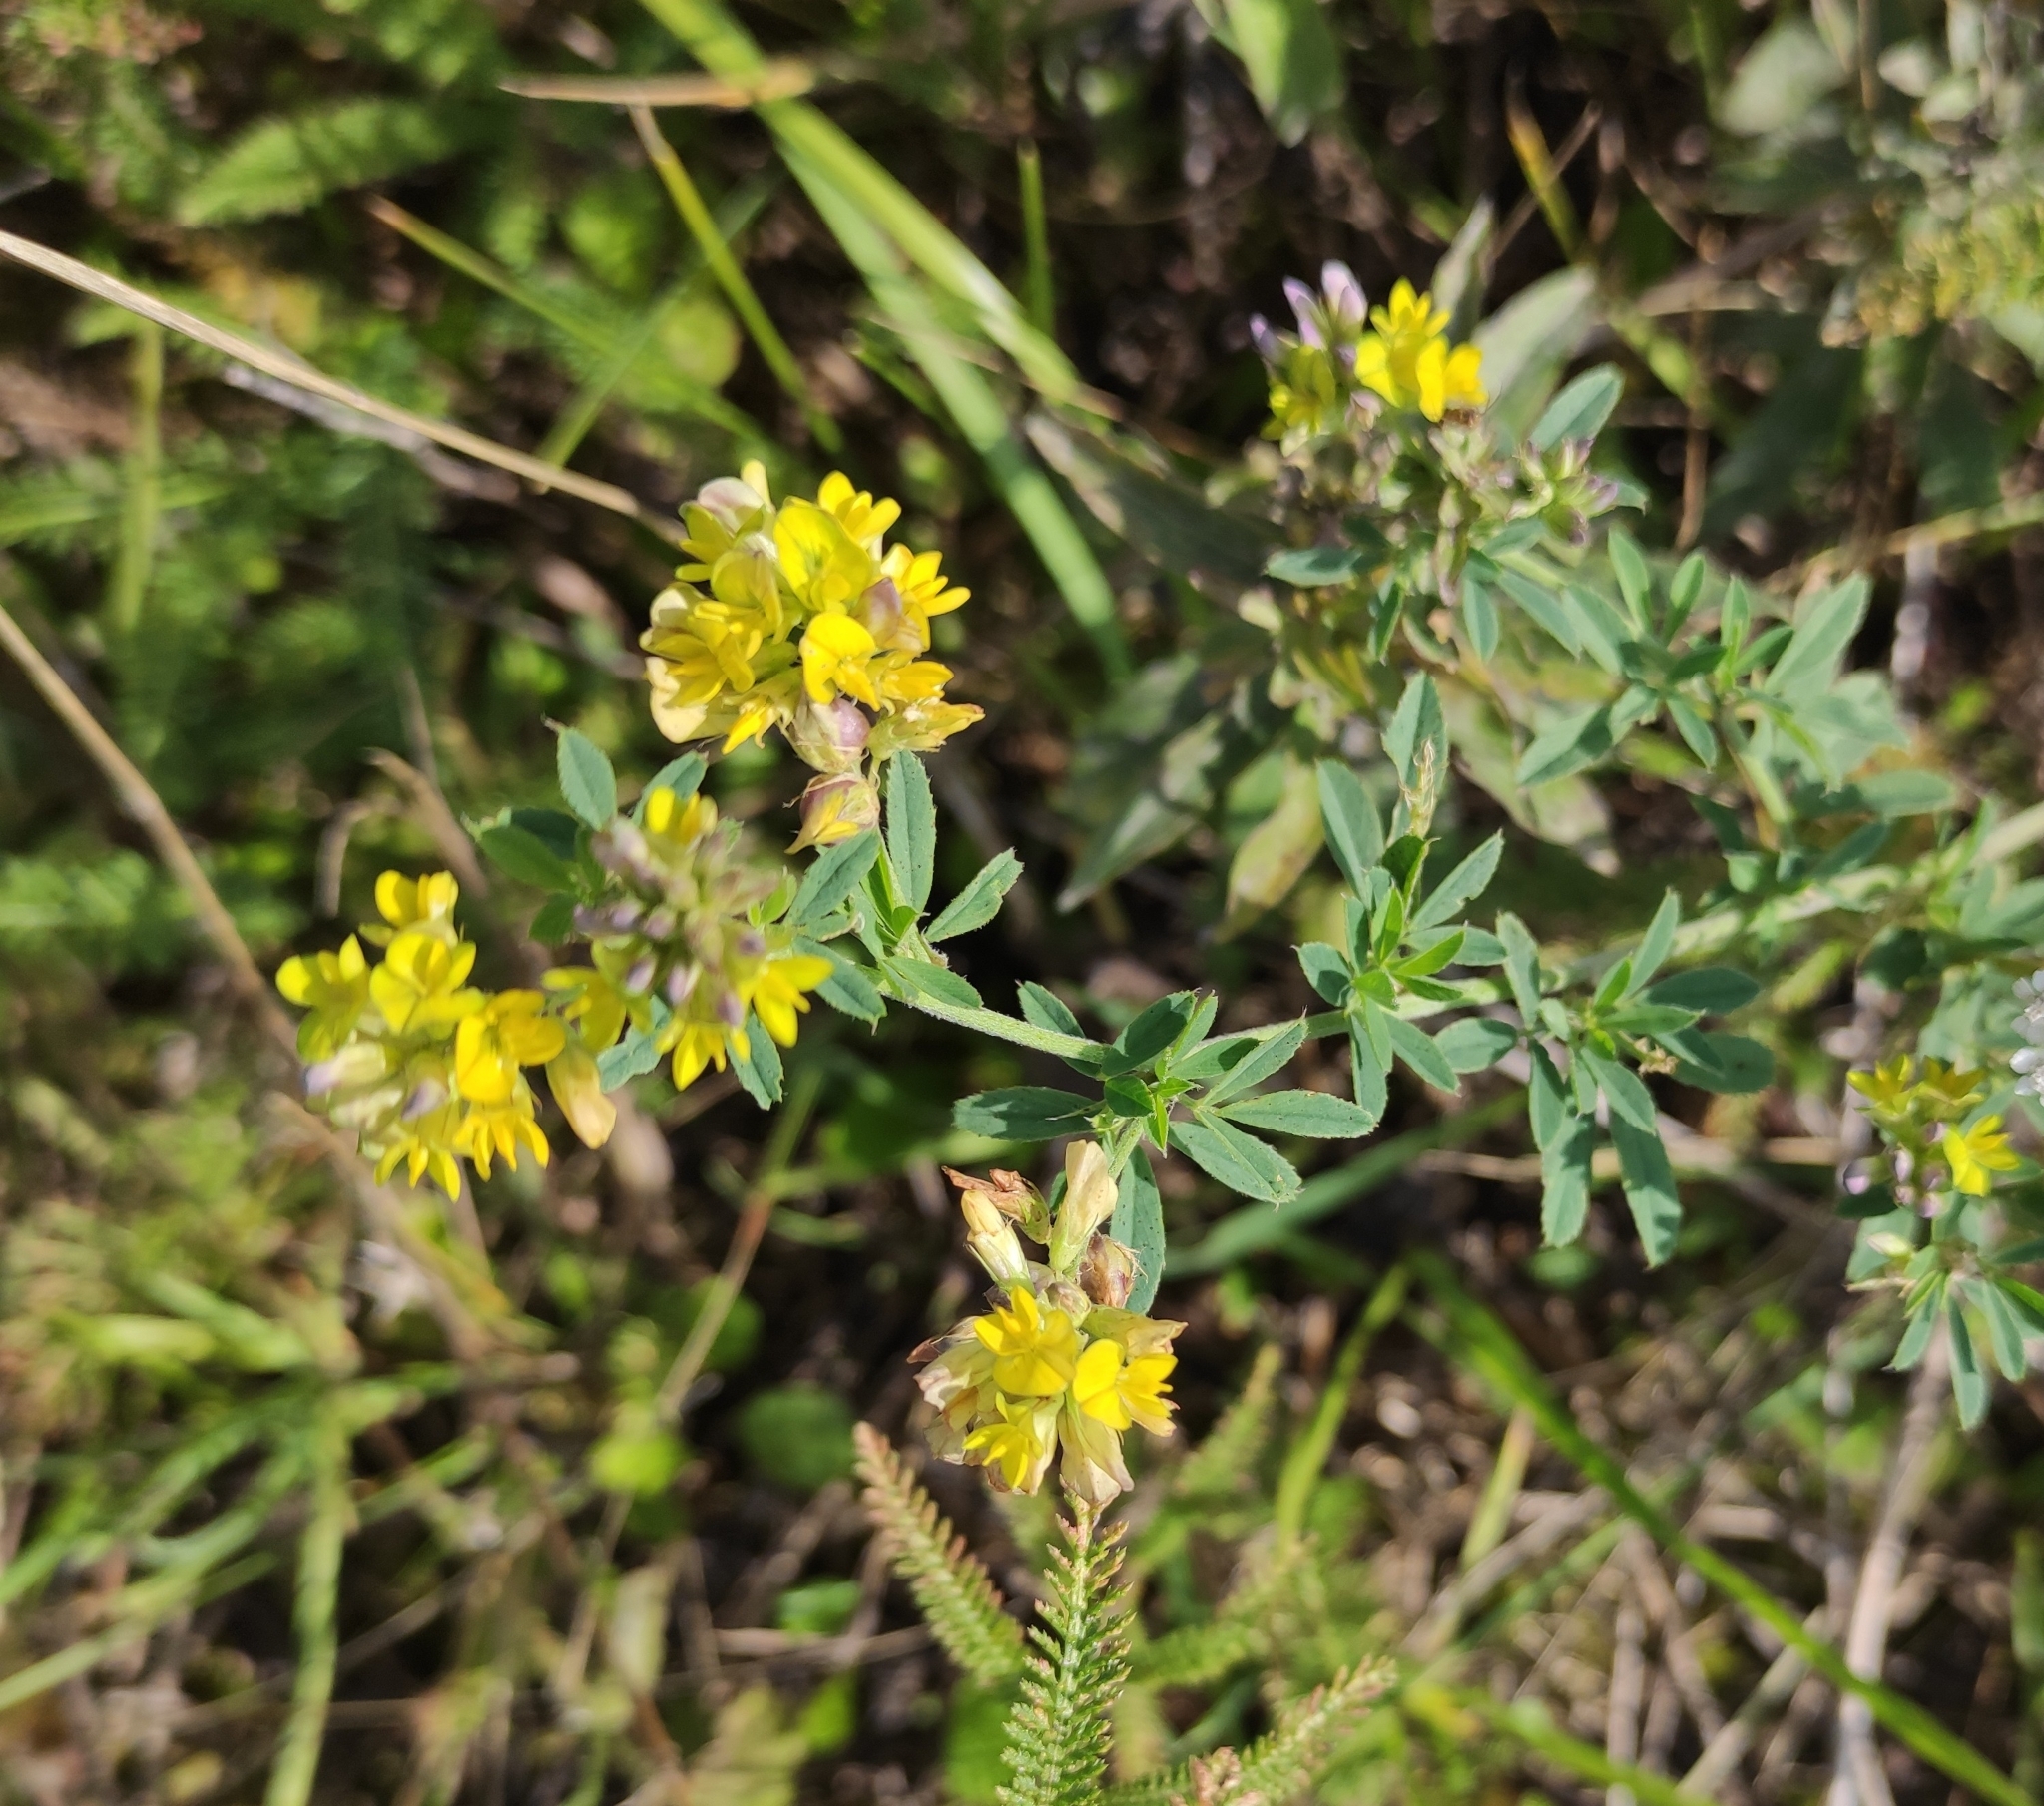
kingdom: Plantae
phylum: Tracheophyta
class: Magnoliopsida
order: Fabales
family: Fabaceae
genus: Medicago
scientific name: Medicago varia
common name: Sand lucerne
